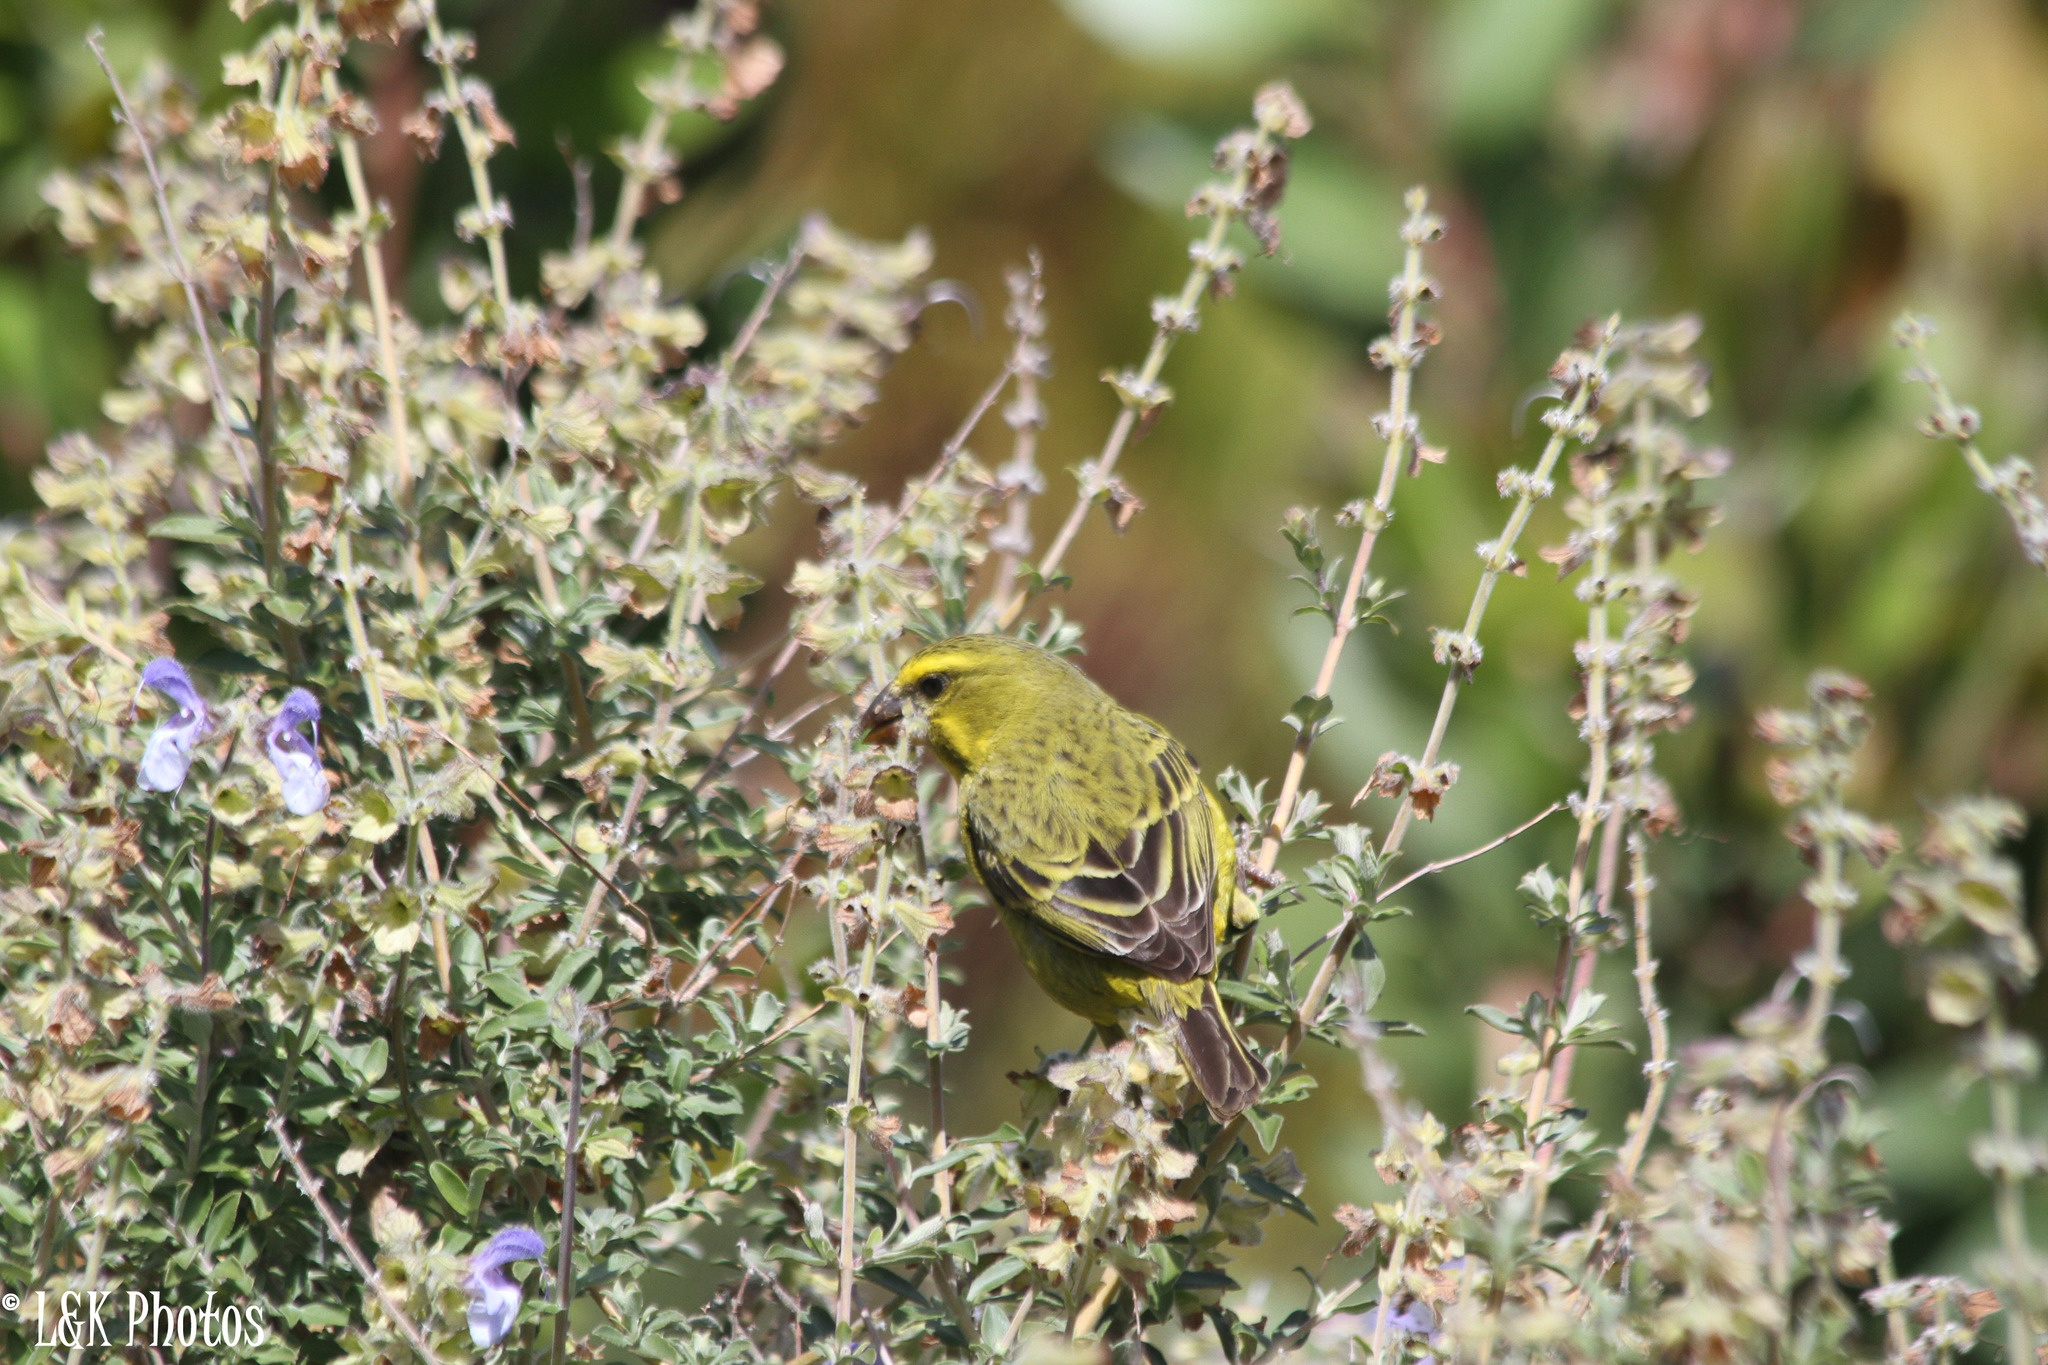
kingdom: Animalia
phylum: Chordata
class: Aves
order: Passeriformes
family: Fringillidae
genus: Crithagra
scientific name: Crithagra sulphurata
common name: Brimstone canary
